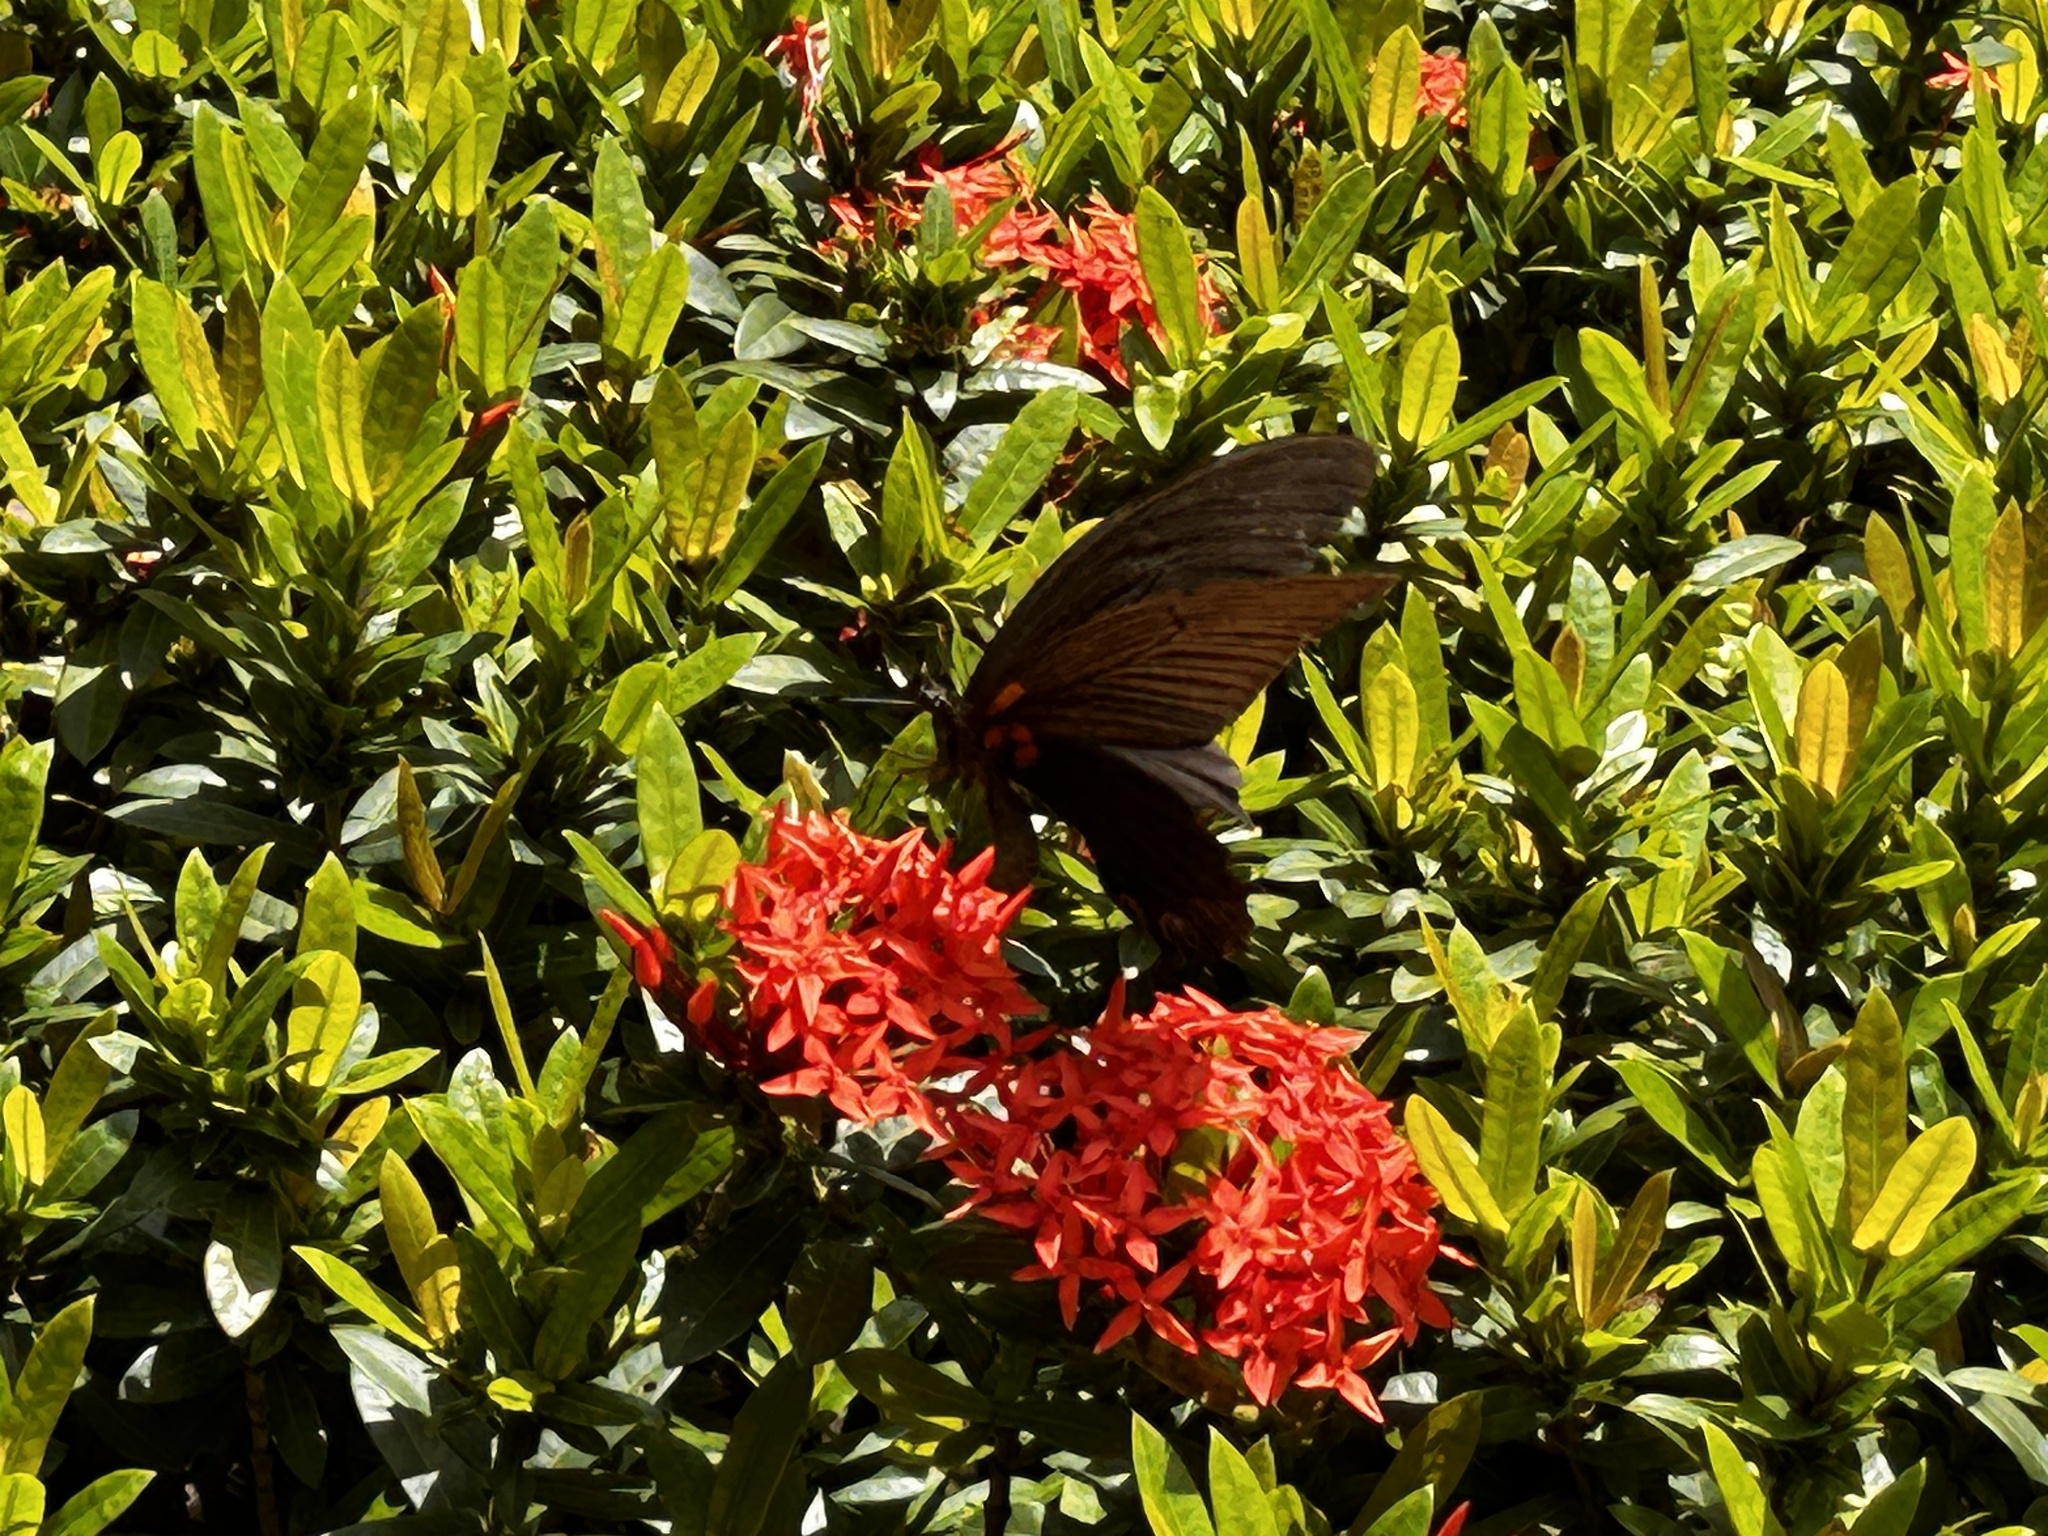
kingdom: Animalia
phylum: Arthropoda
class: Insecta
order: Lepidoptera
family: Papilionidae
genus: Papilio
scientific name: Papilio memnon
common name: Great mormon
